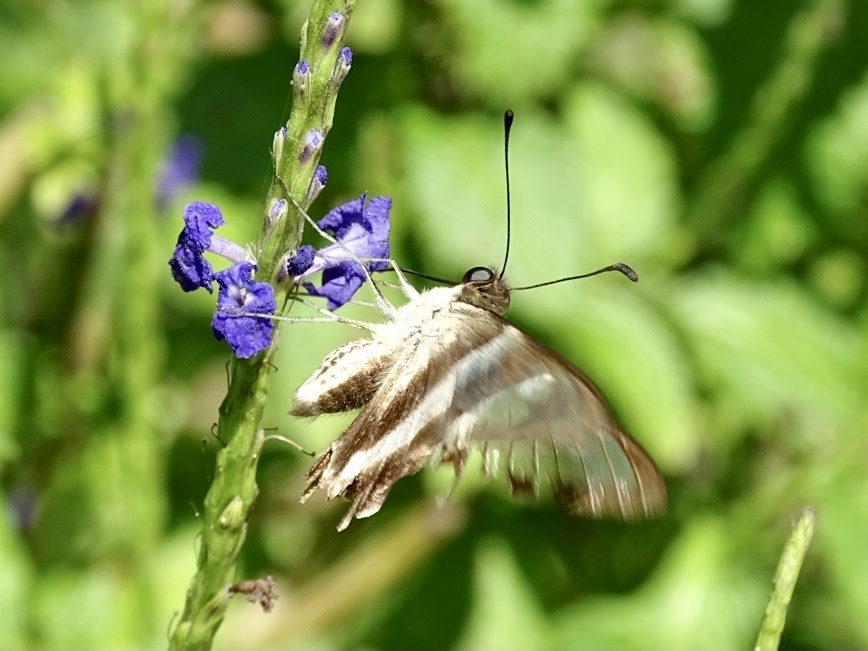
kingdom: Animalia
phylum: Arthropoda
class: Insecta
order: Lepidoptera
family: Papilionidae
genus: Lamproptera
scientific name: Lamproptera curius
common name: White dragontail
